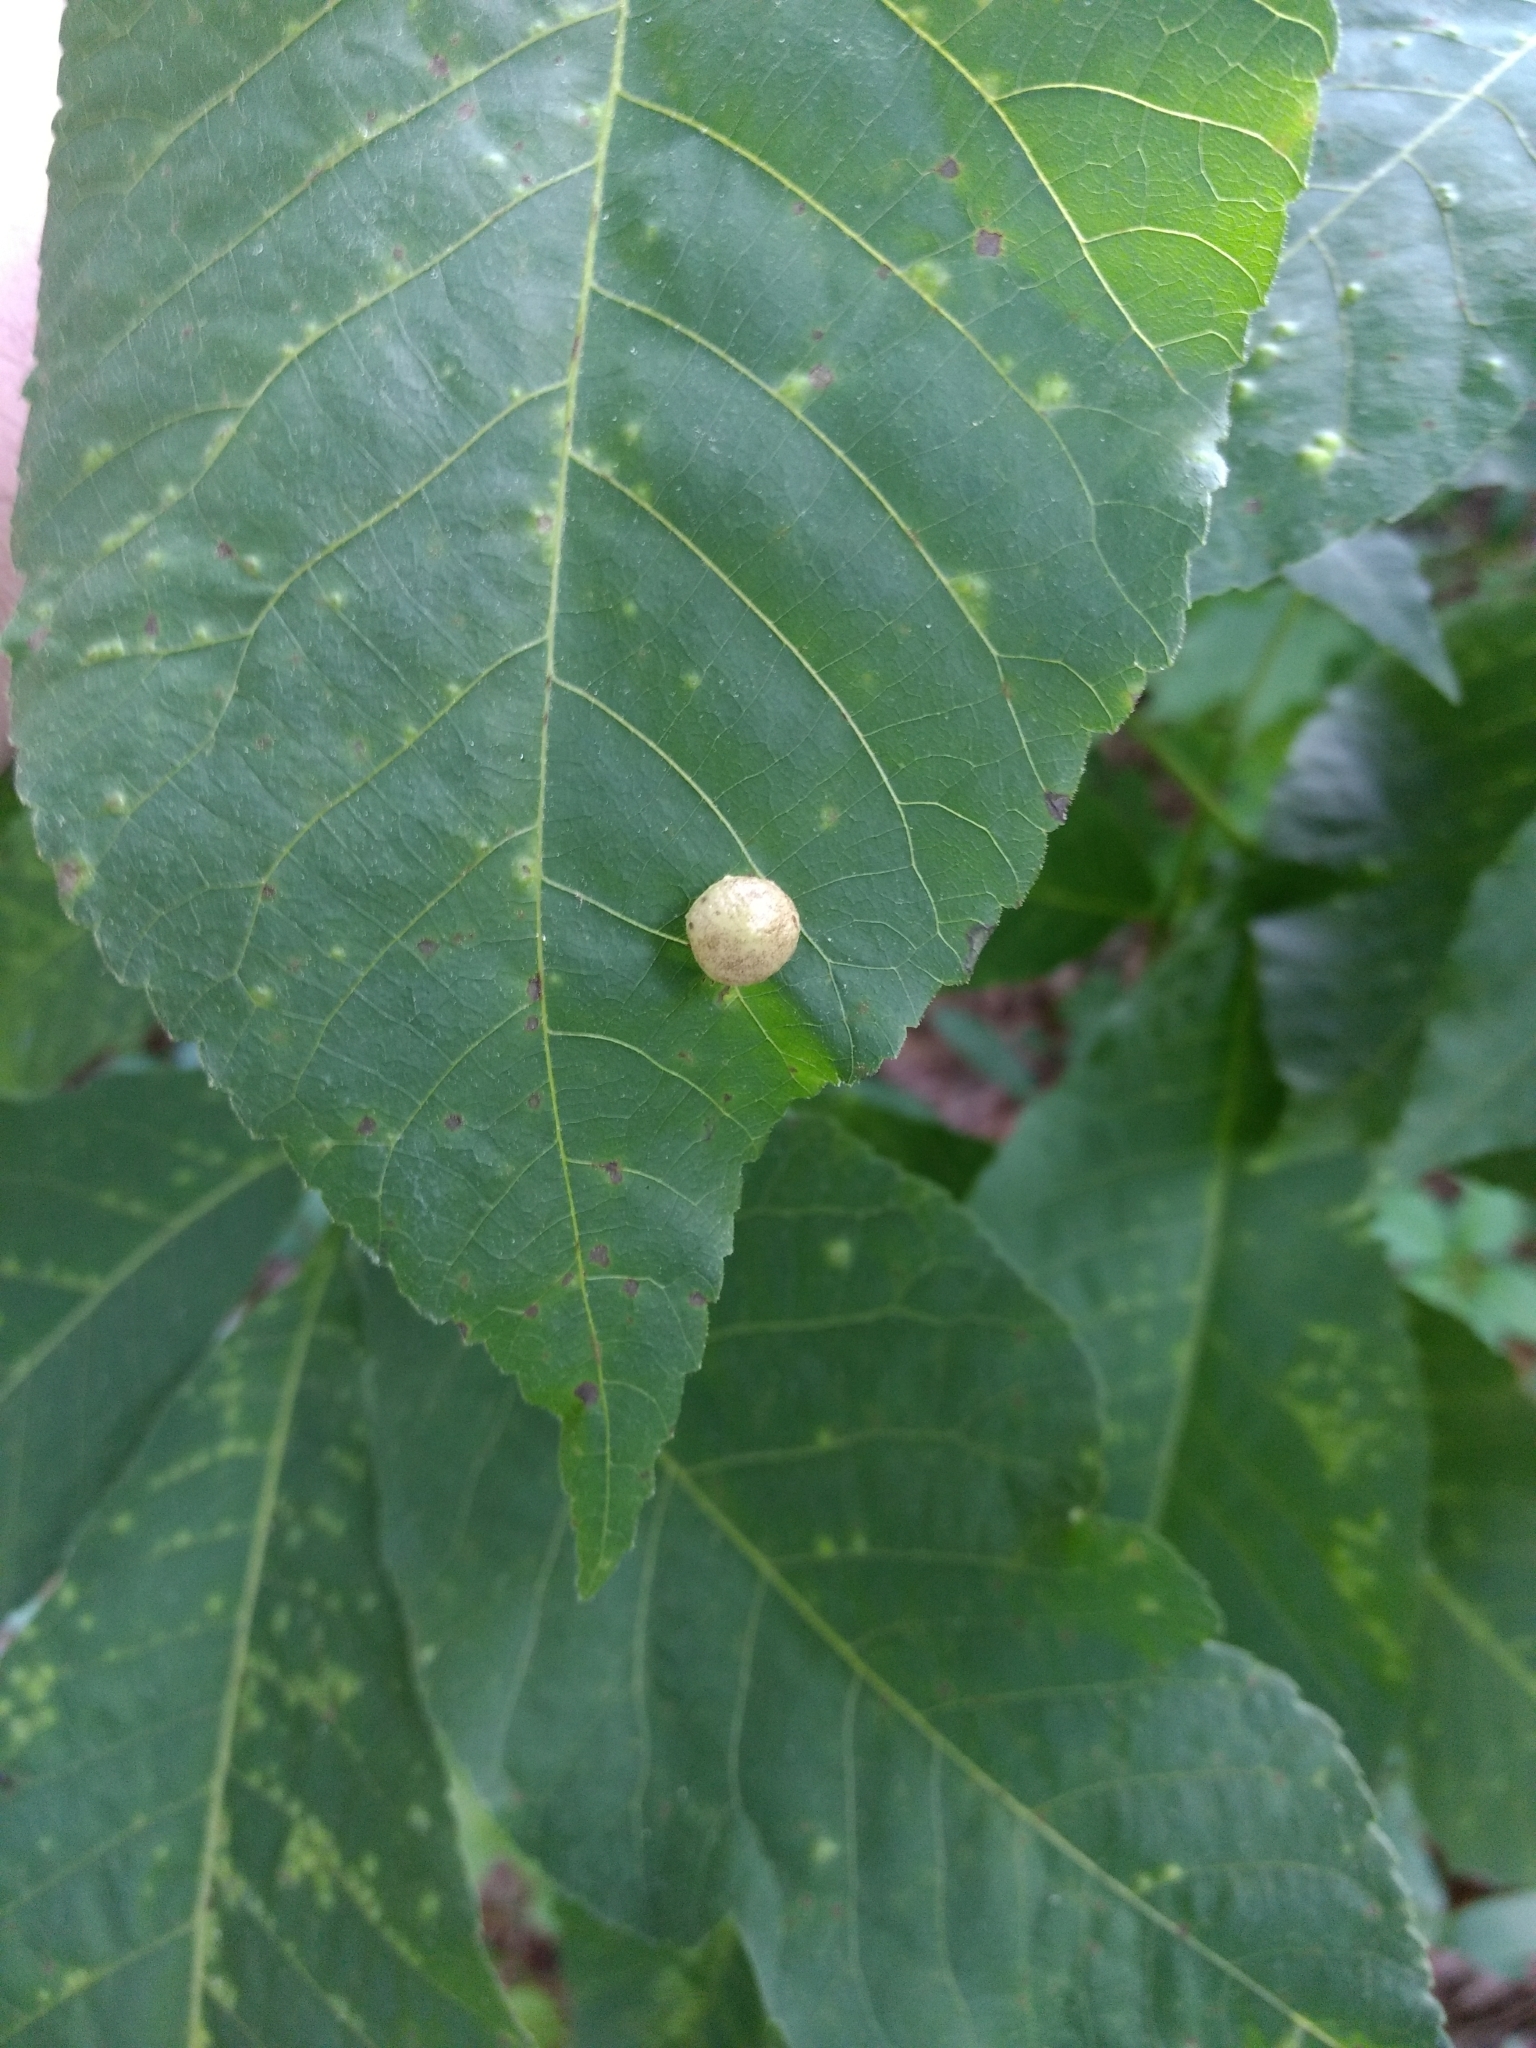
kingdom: Animalia
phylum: Arthropoda
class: Insecta
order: Hemiptera
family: Phylloxeridae
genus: Phylloxera
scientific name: Phylloxera caryae-globuli
